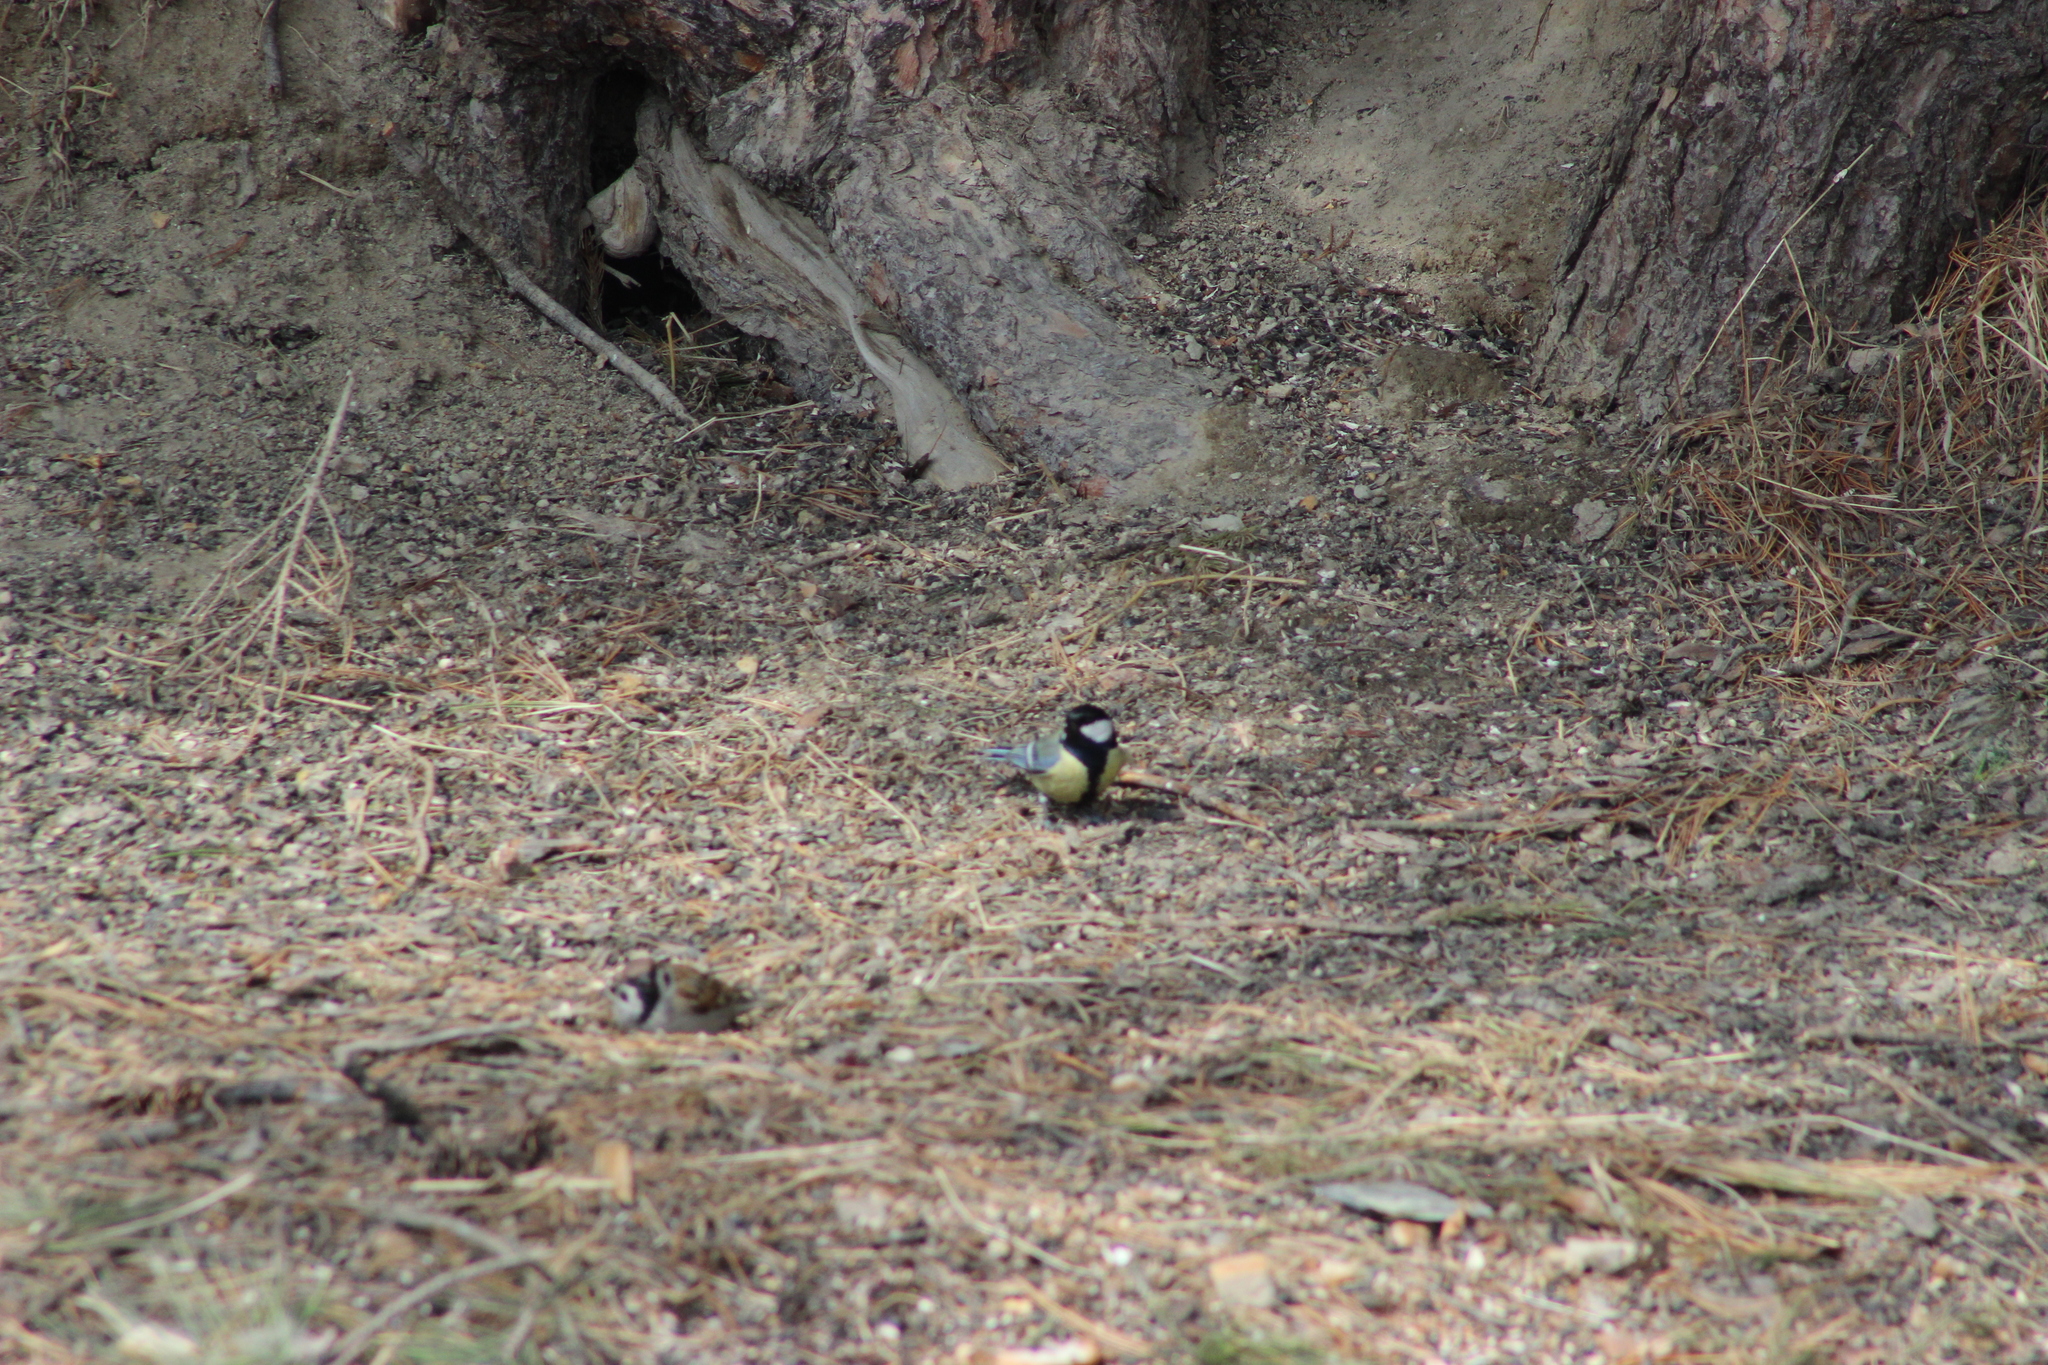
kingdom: Animalia
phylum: Chordata
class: Aves
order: Passeriformes
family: Paridae
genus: Parus
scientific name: Parus major
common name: Great tit
